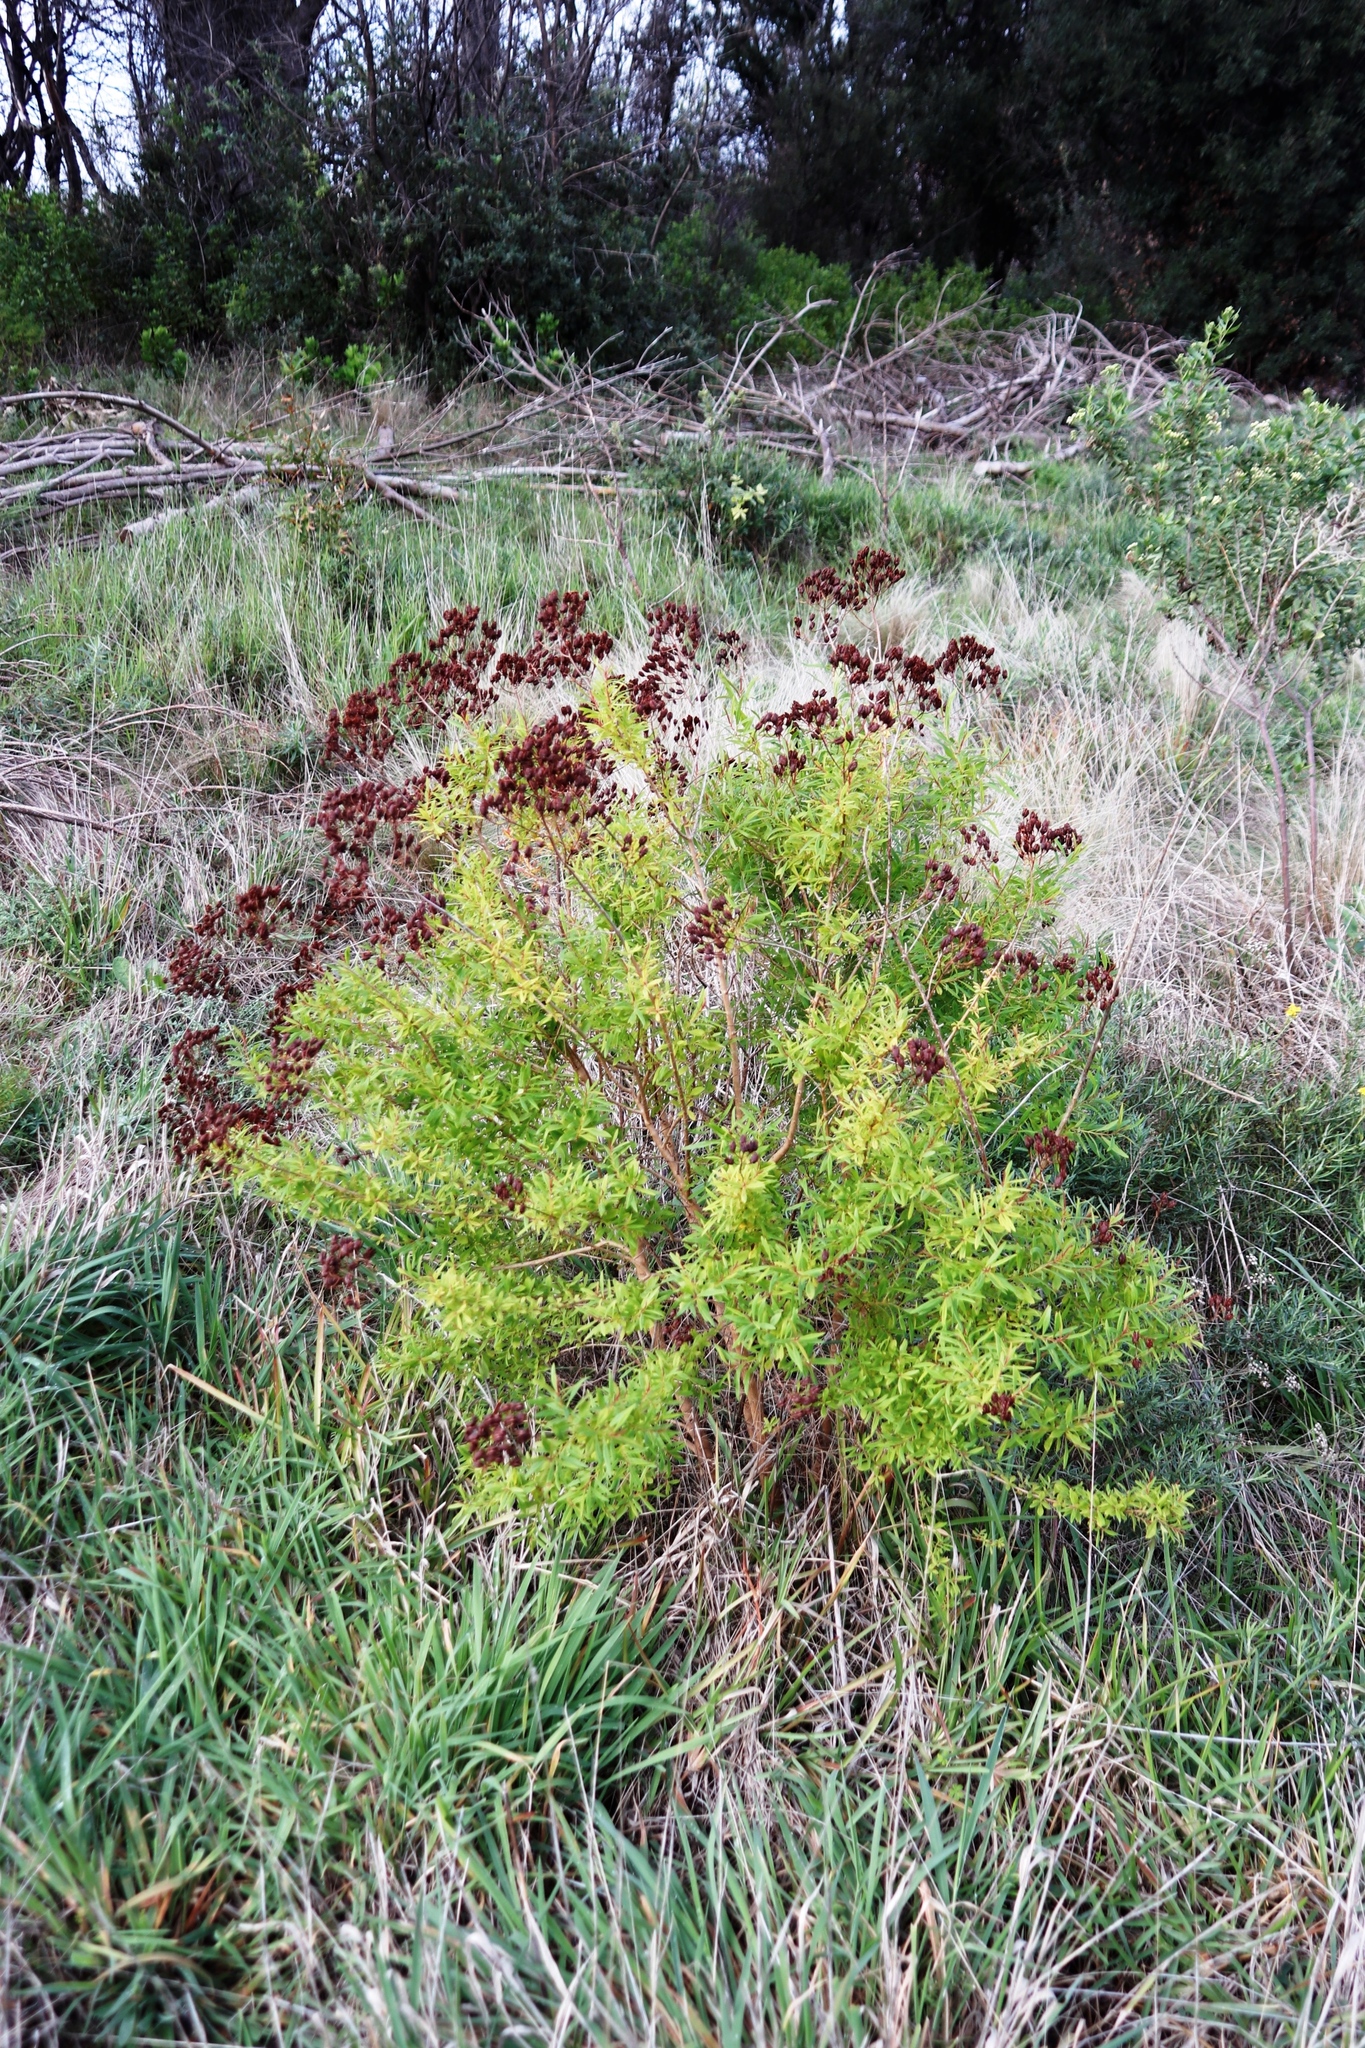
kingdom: Plantae
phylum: Tracheophyta
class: Magnoliopsida
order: Malpighiales
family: Hypericaceae
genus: Hypericum
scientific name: Hypericum canariense
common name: Canary island st. johnswort
